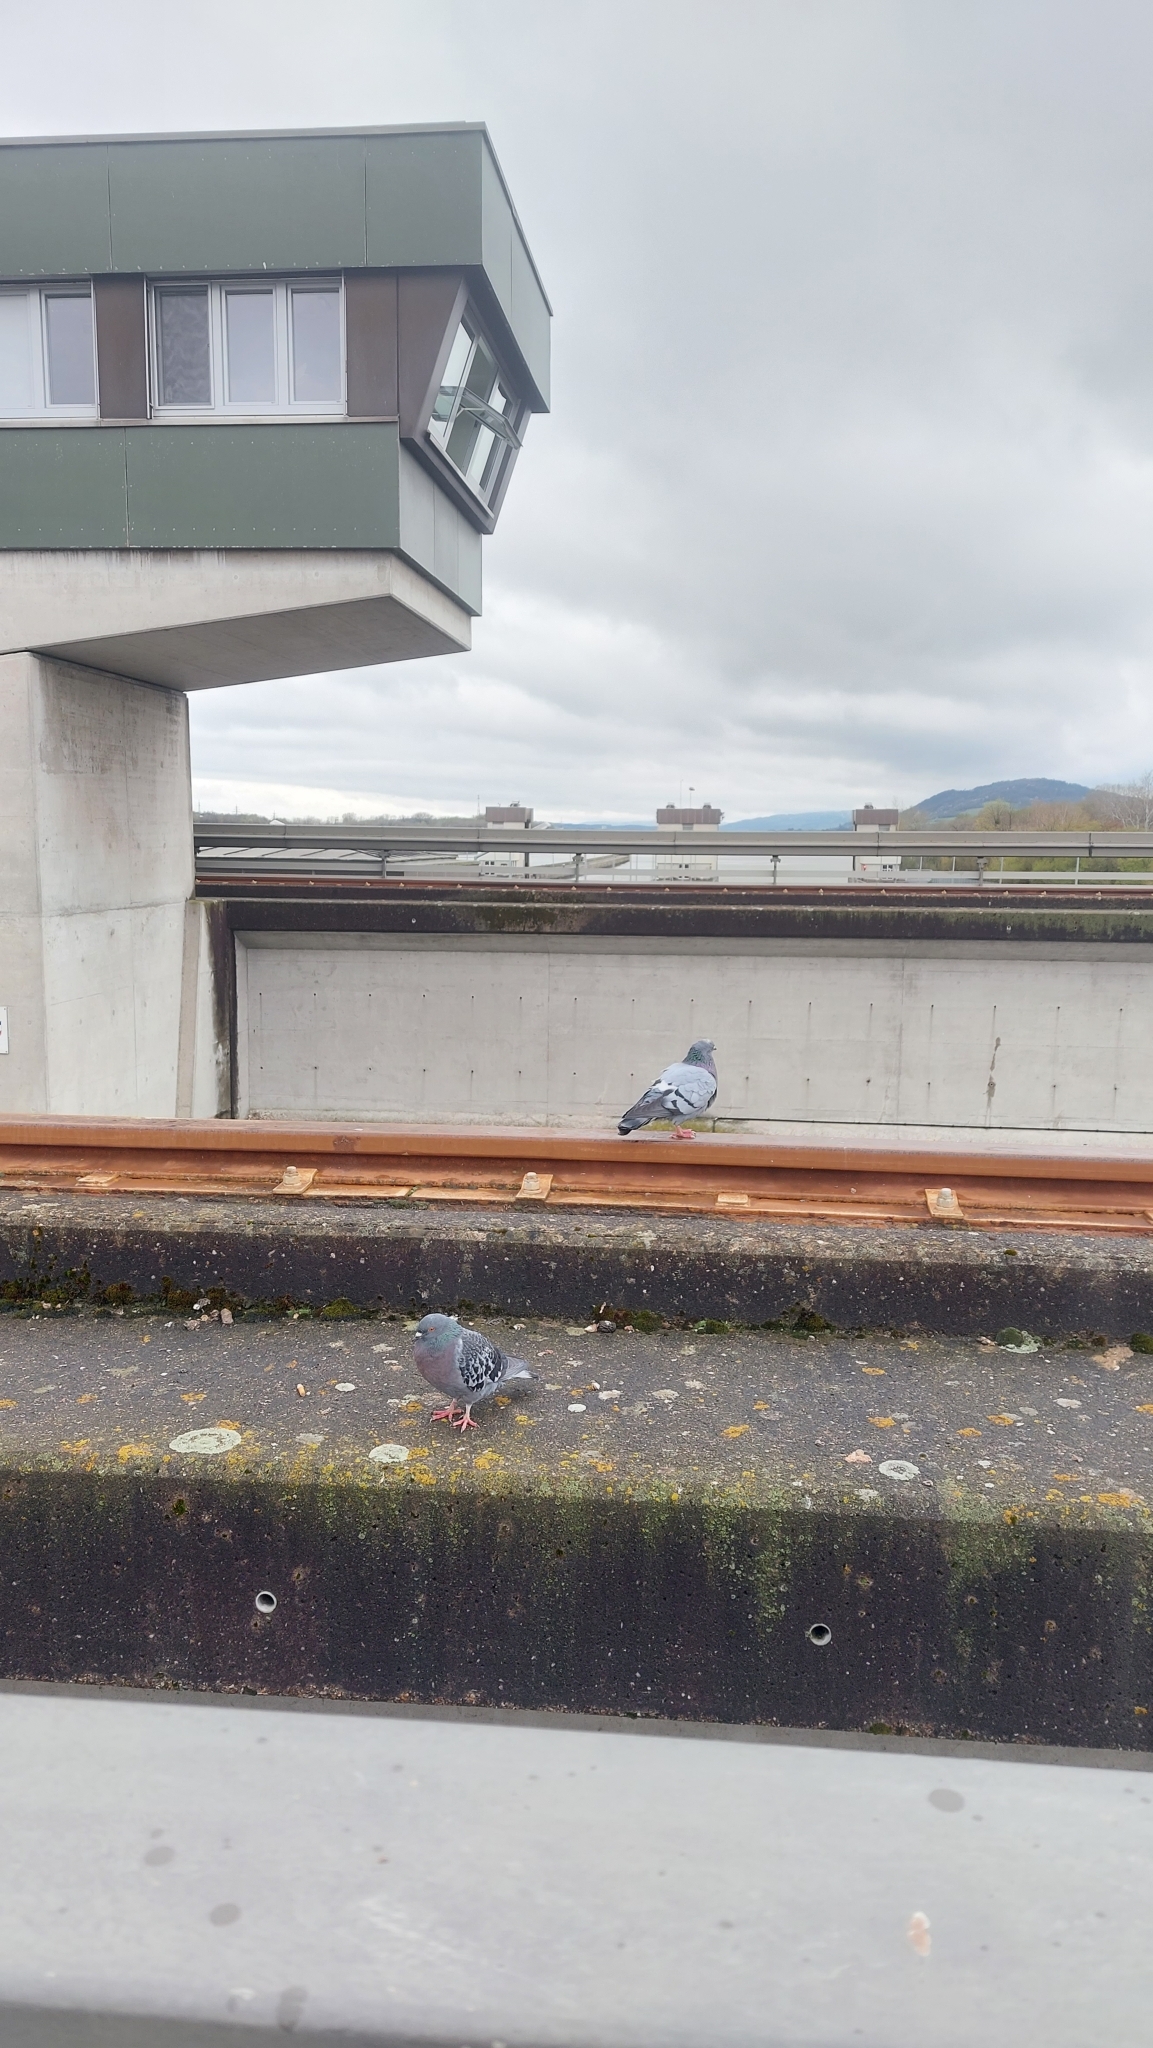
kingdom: Animalia
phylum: Chordata
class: Aves
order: Columbiformes
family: Columbidae
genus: Columba
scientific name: Columba livia
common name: Rock pigeon
